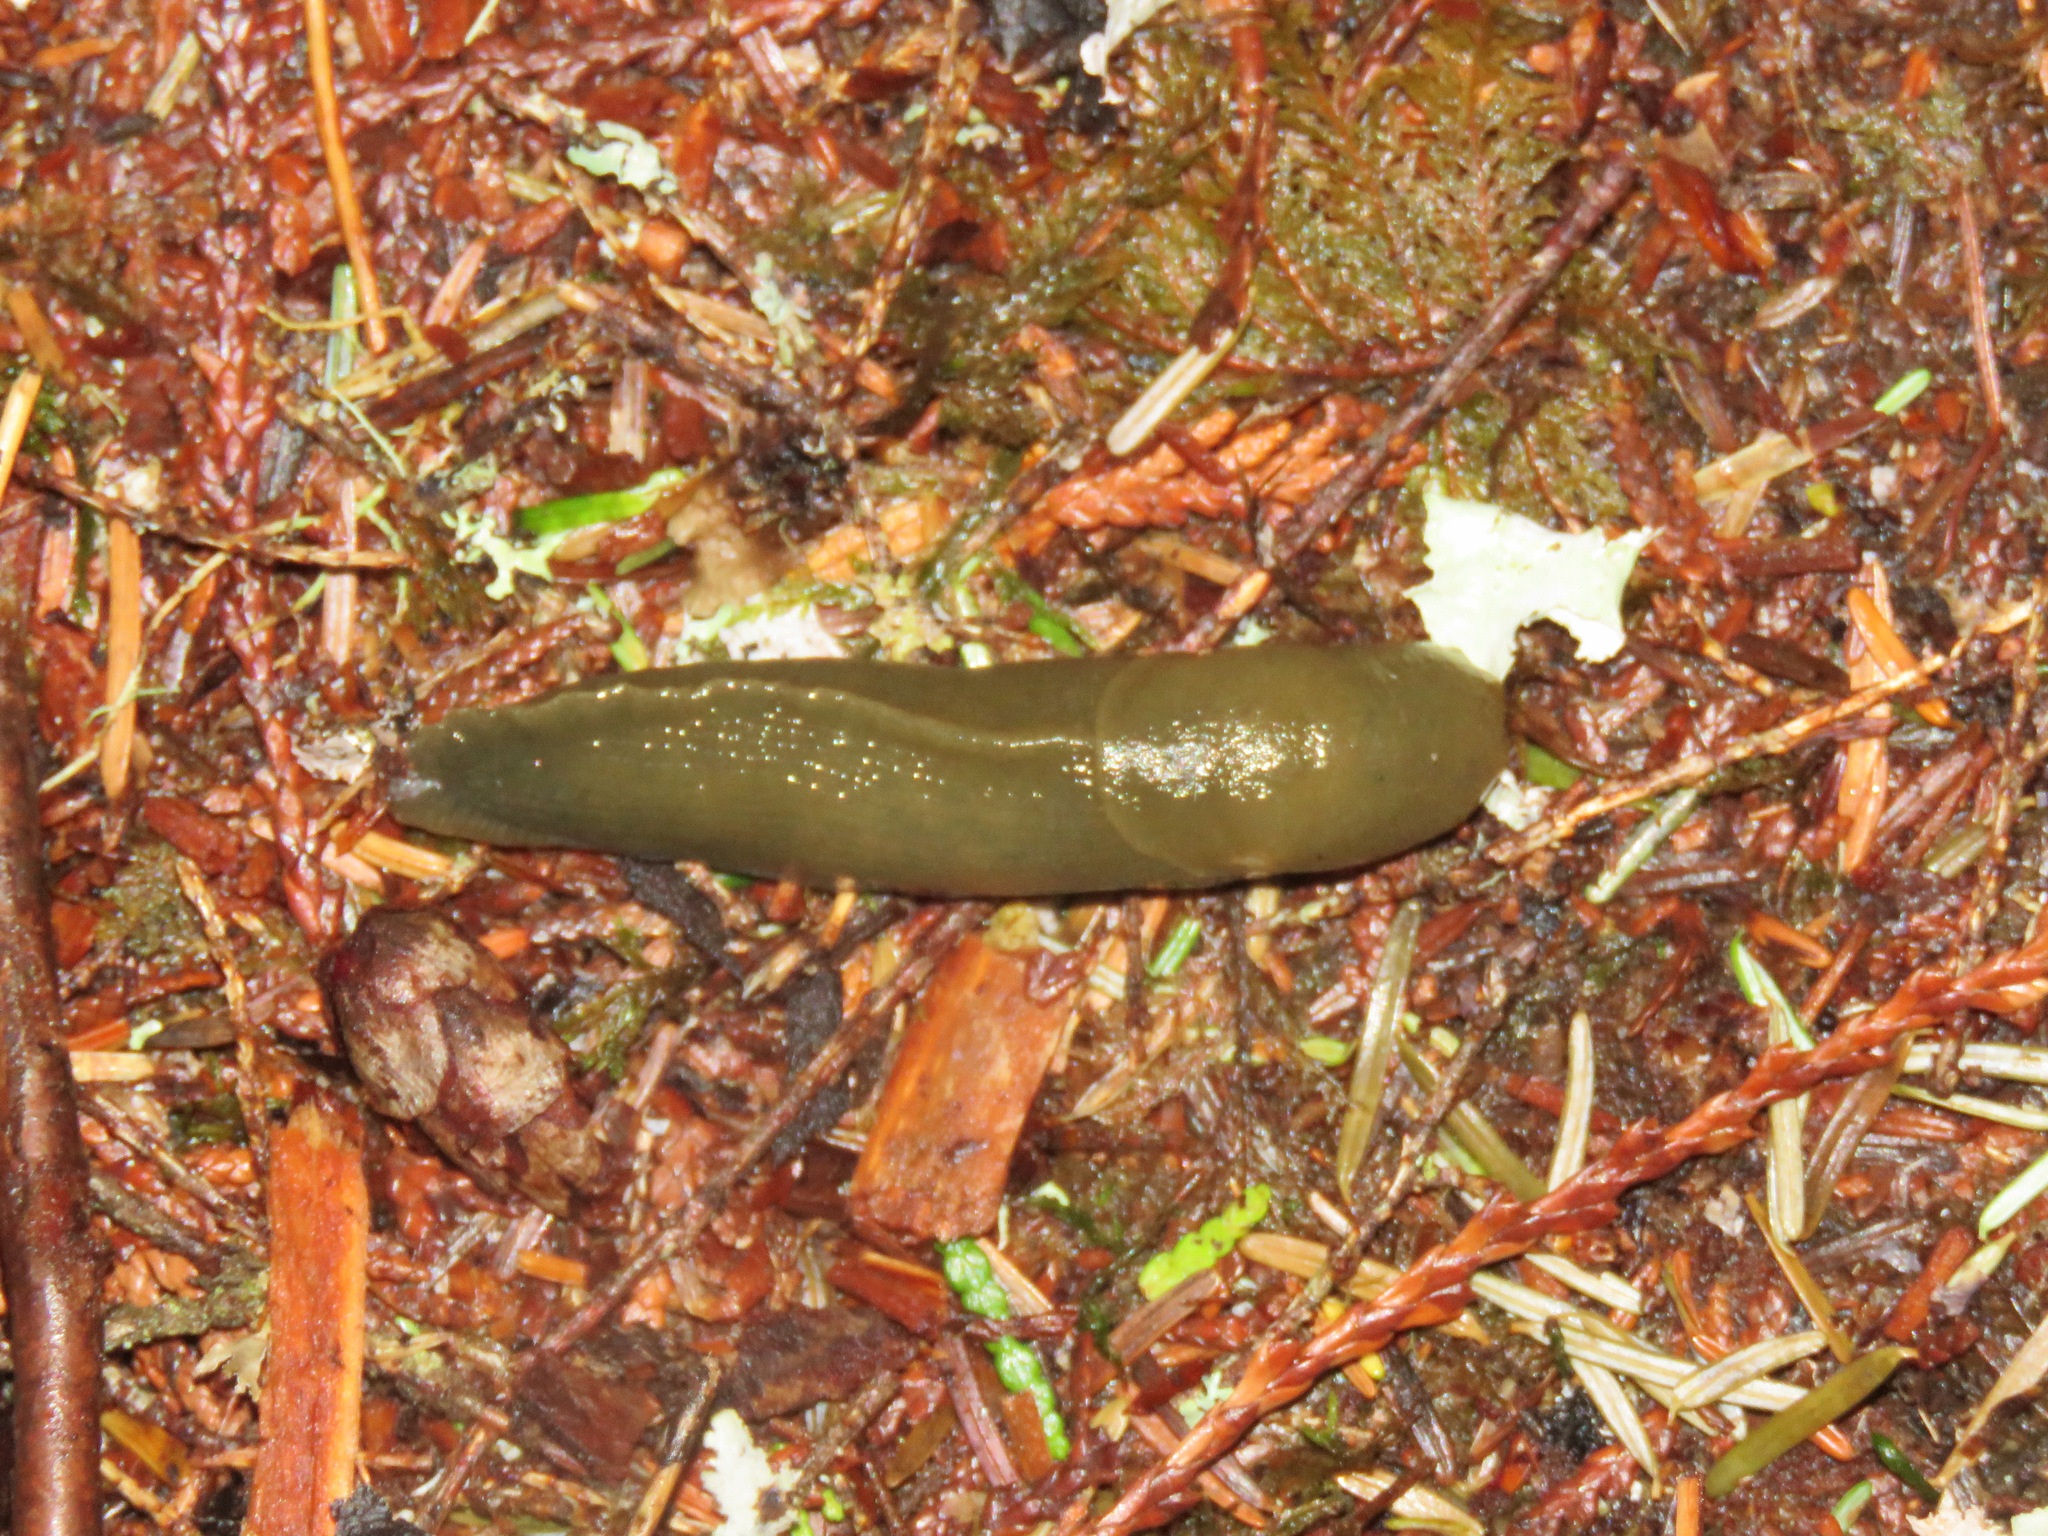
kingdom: Animalia
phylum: Mollusca
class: Gastropoda
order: Stylommatophora
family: Ariolimacidae
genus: Ariolimax
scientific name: Ariolimax columbianus
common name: Pacific banana slug
